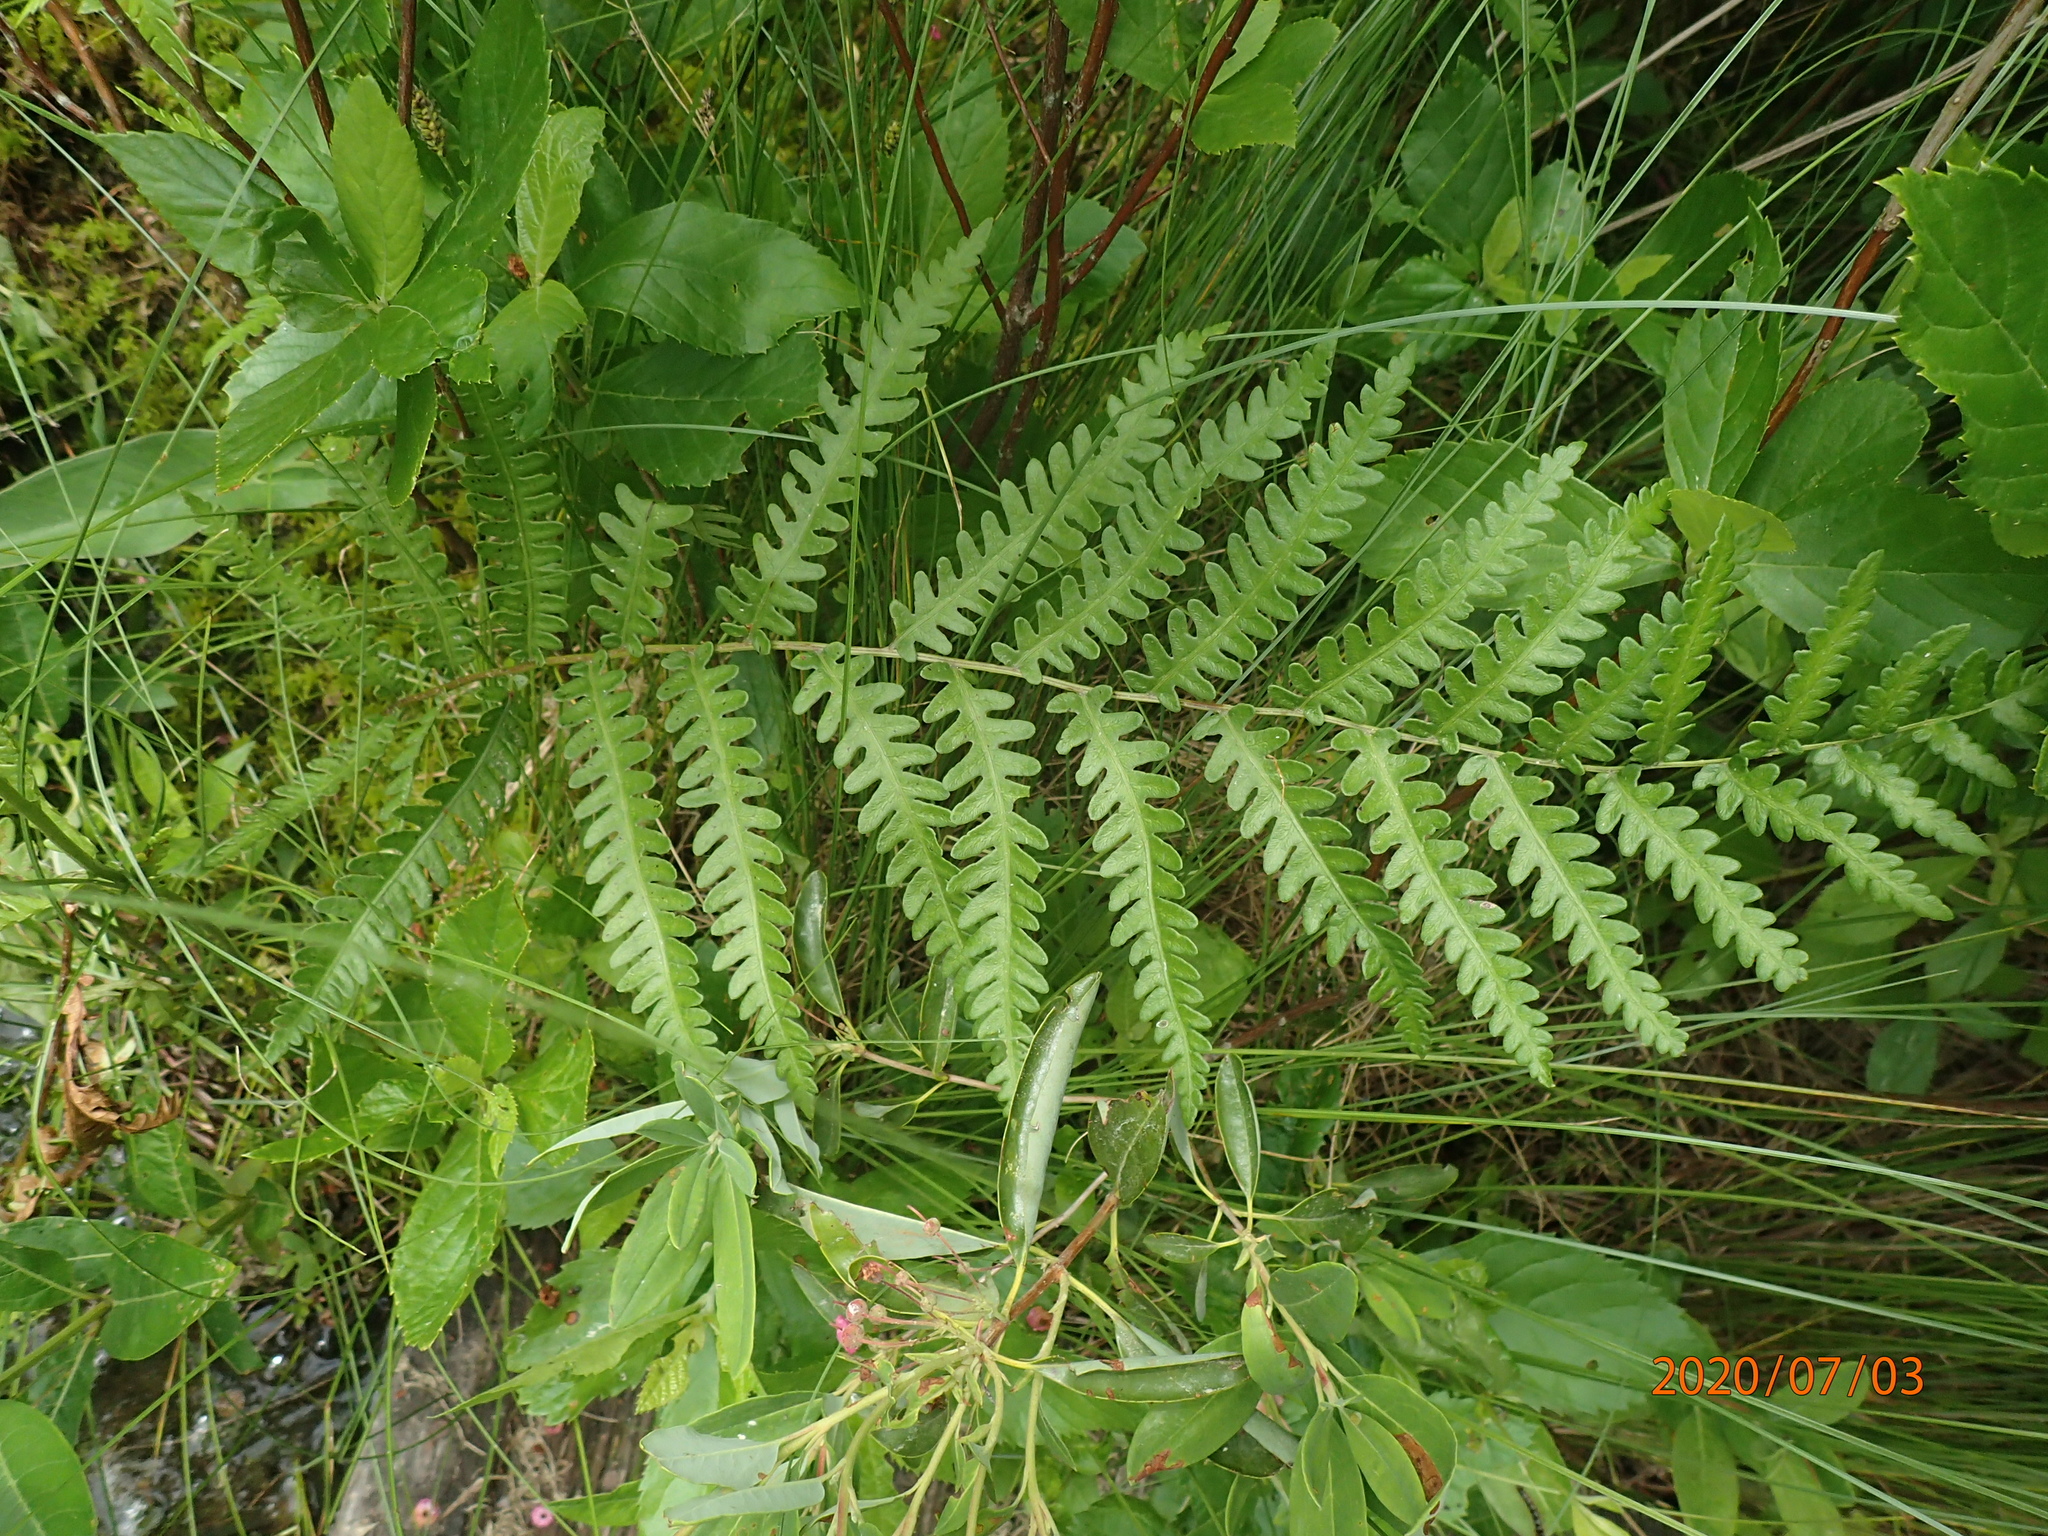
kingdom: Plantae
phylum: Tracheophyta
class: Polypodiopsida
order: Polypodiales
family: Blechnaceae
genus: Anchistea
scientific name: Anchistea virginica
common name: Virginia chain fern
